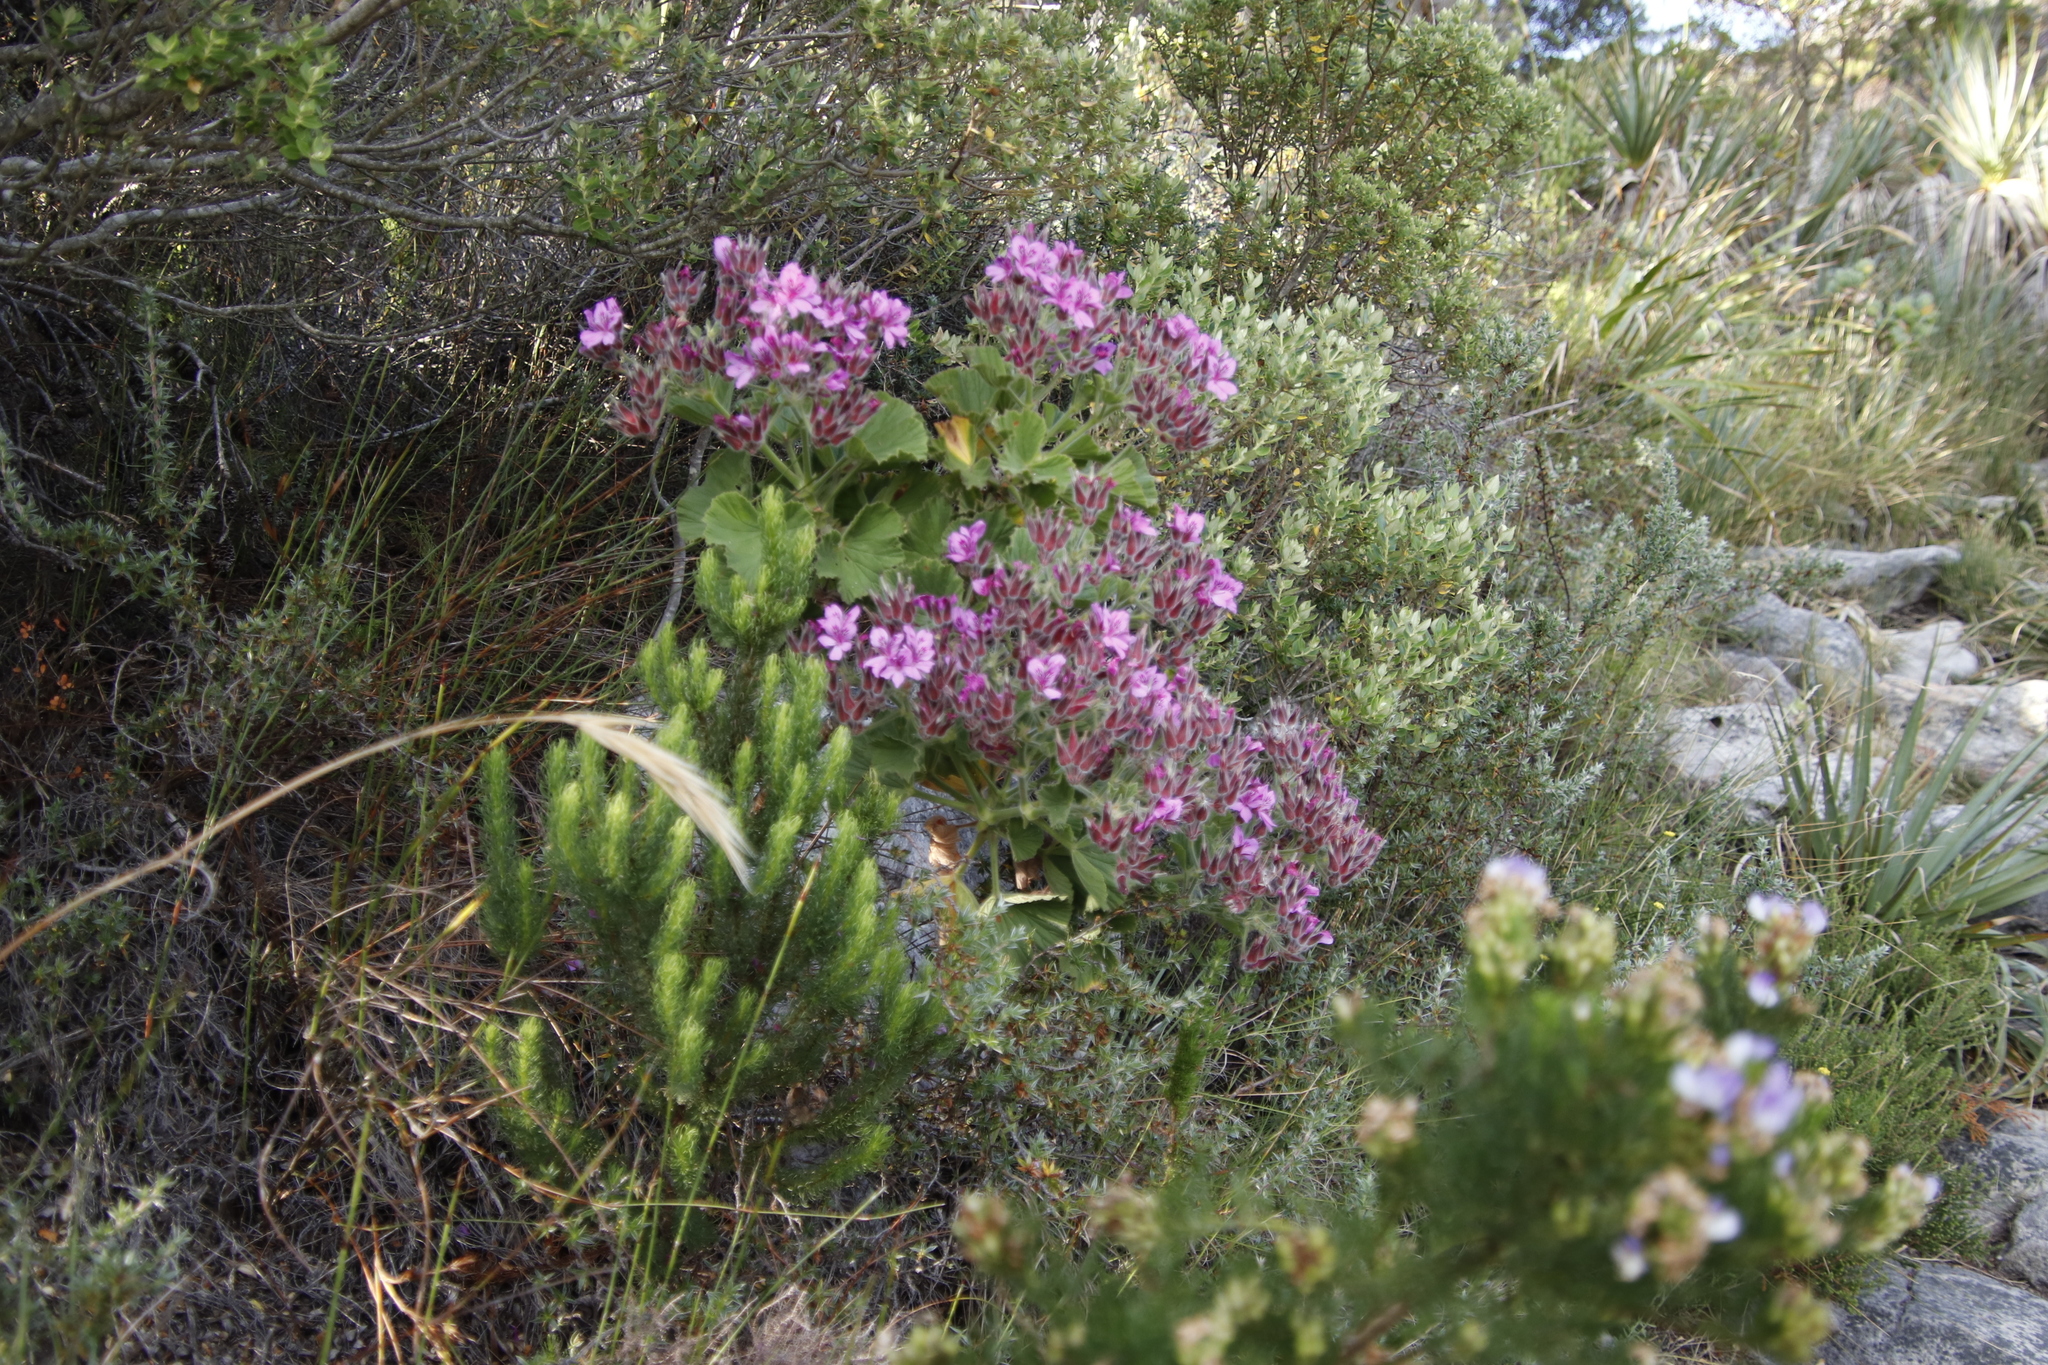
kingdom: Plantae
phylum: Tracheophyta
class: Magnoliopsida
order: Geraniales
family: Geraniaceae
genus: Pelargonium
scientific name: Pelargonium cucullatum
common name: Tree pelargonium
